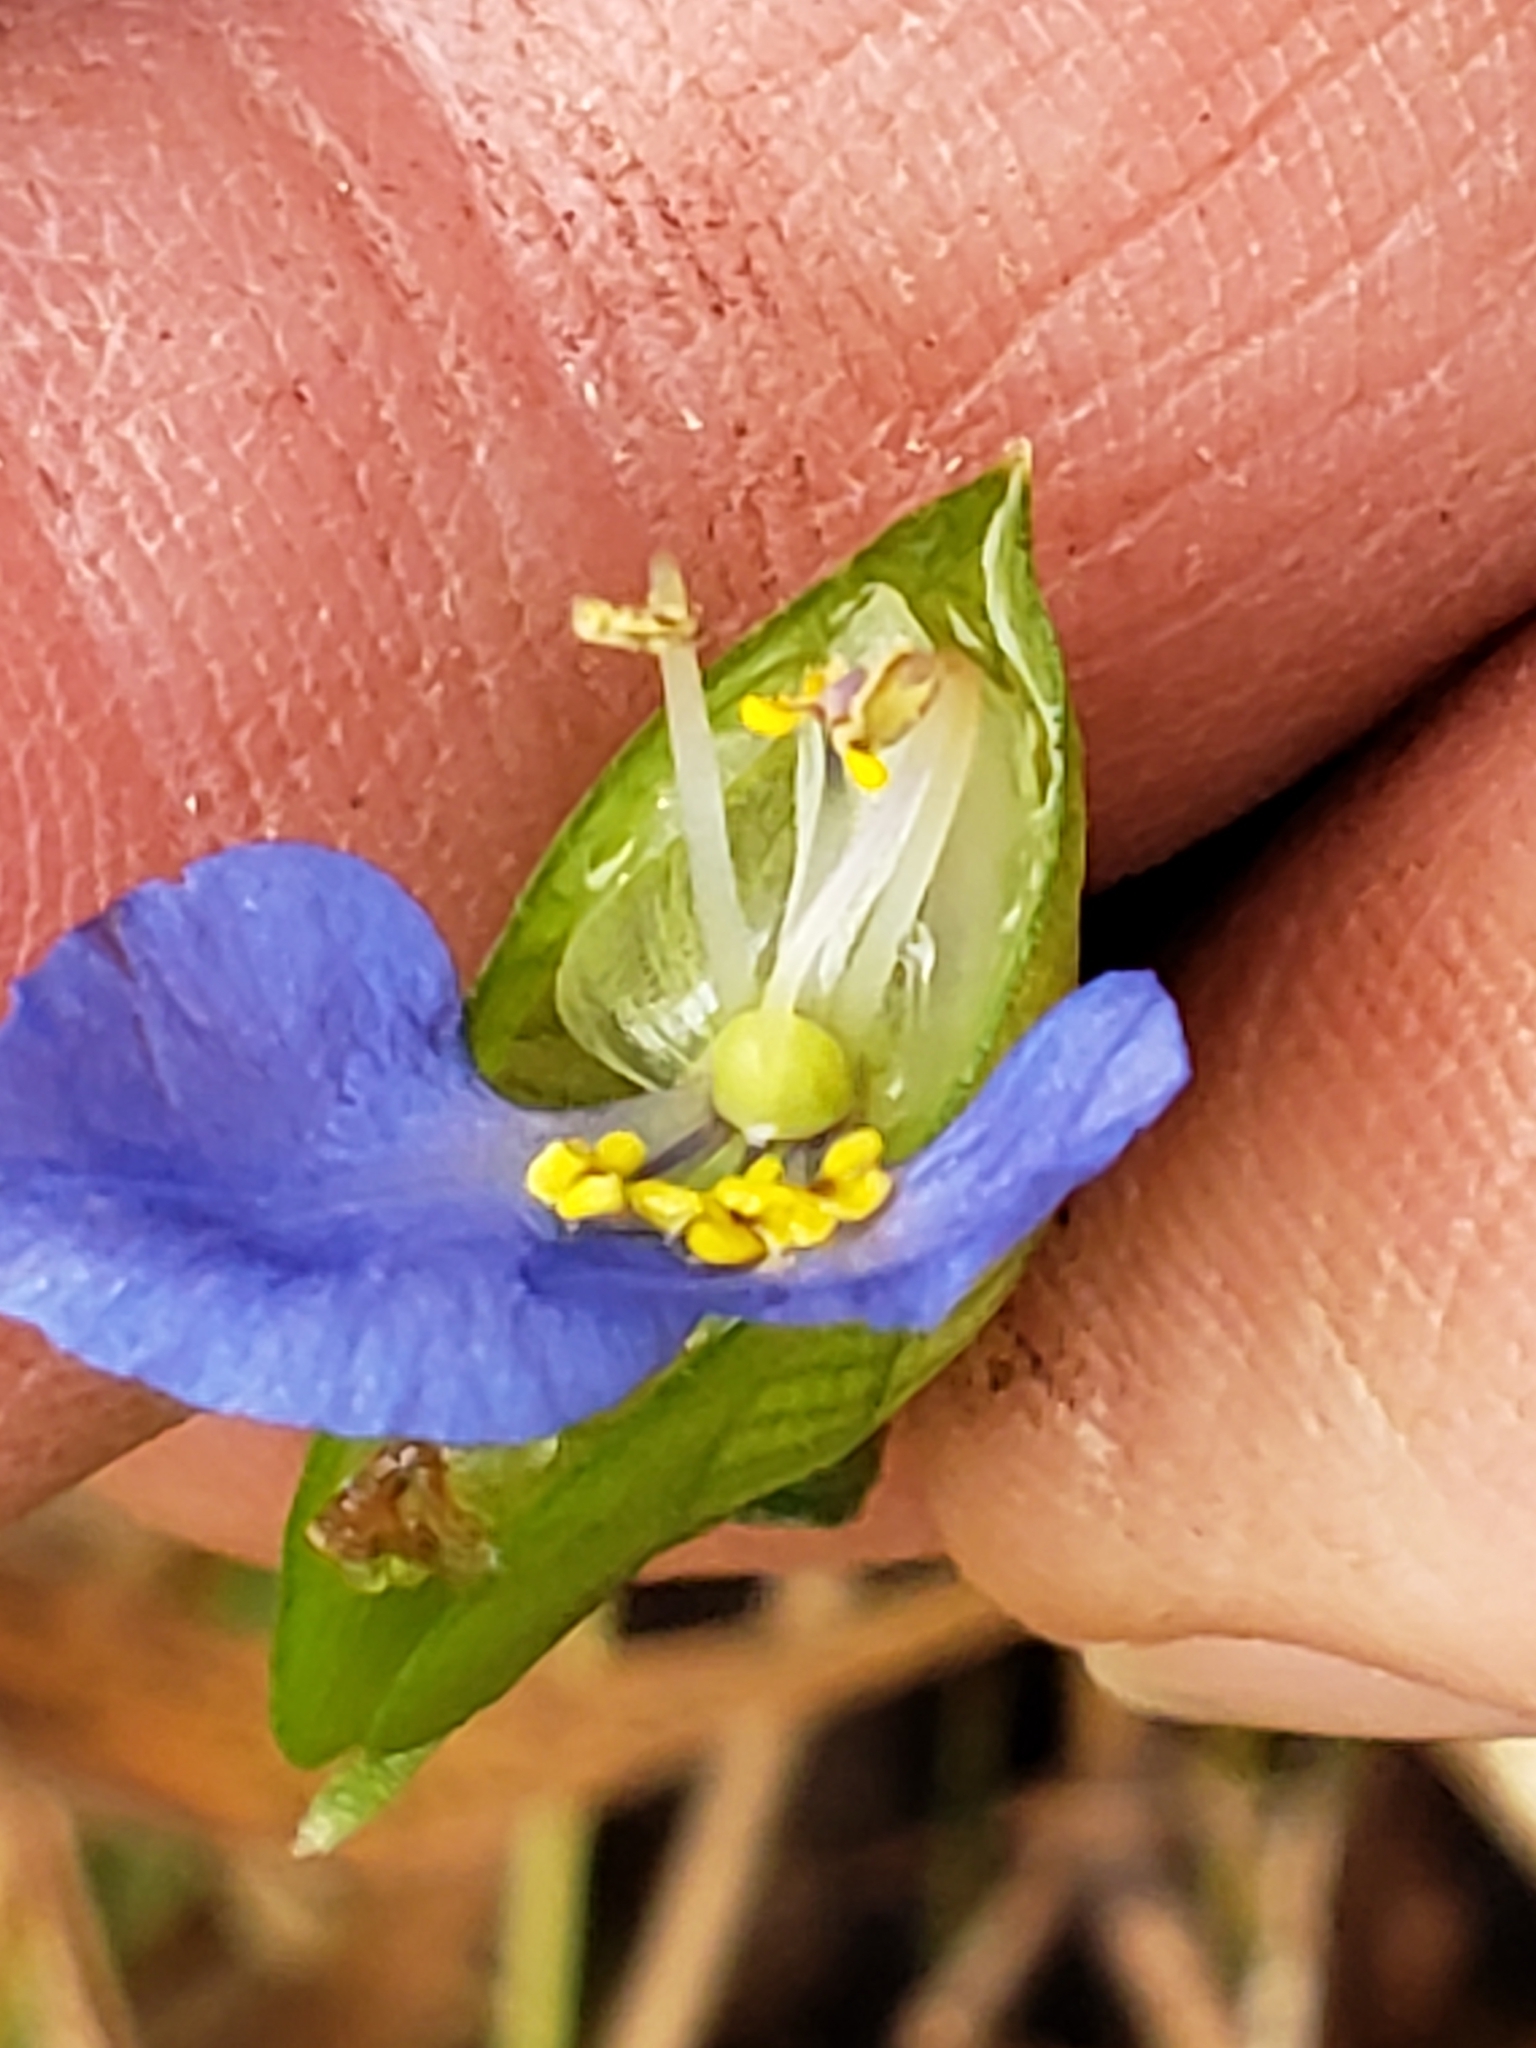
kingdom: Plantae
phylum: Tracheophyta
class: Liliopsida
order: Commelinales
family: Commelinaceae
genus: Commelina
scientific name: Commelina communis
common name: Asiatic dayflower
